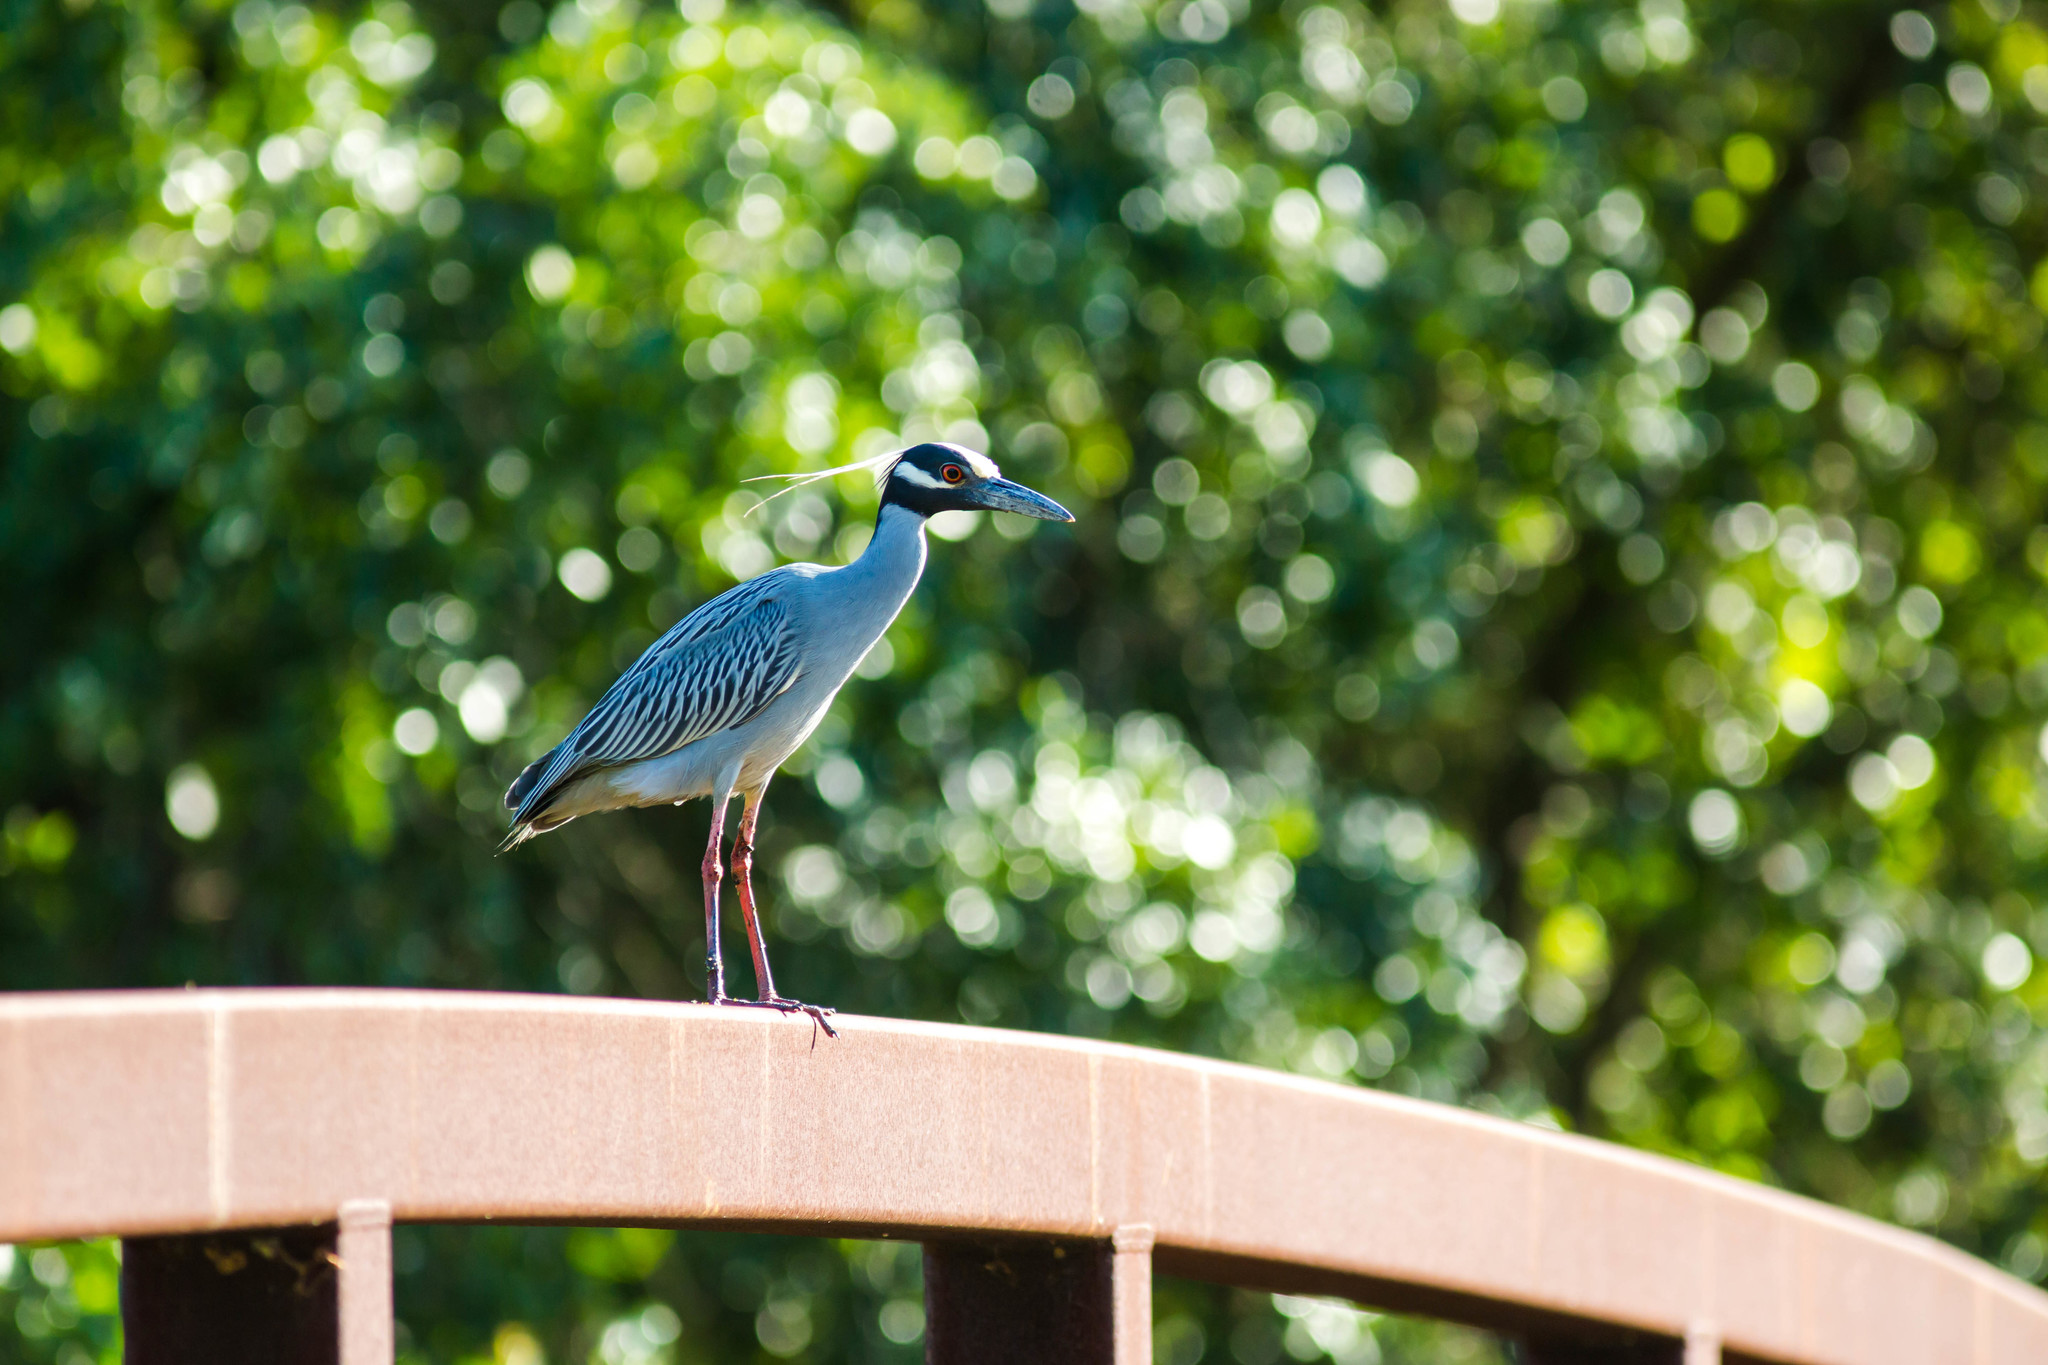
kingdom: Animalia
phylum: Chordata
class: Aves
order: Pelecaniformes
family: Ardeidae
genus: Nyctanassa
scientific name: Nyctanassa violacea
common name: Yellow-crowned night heron
